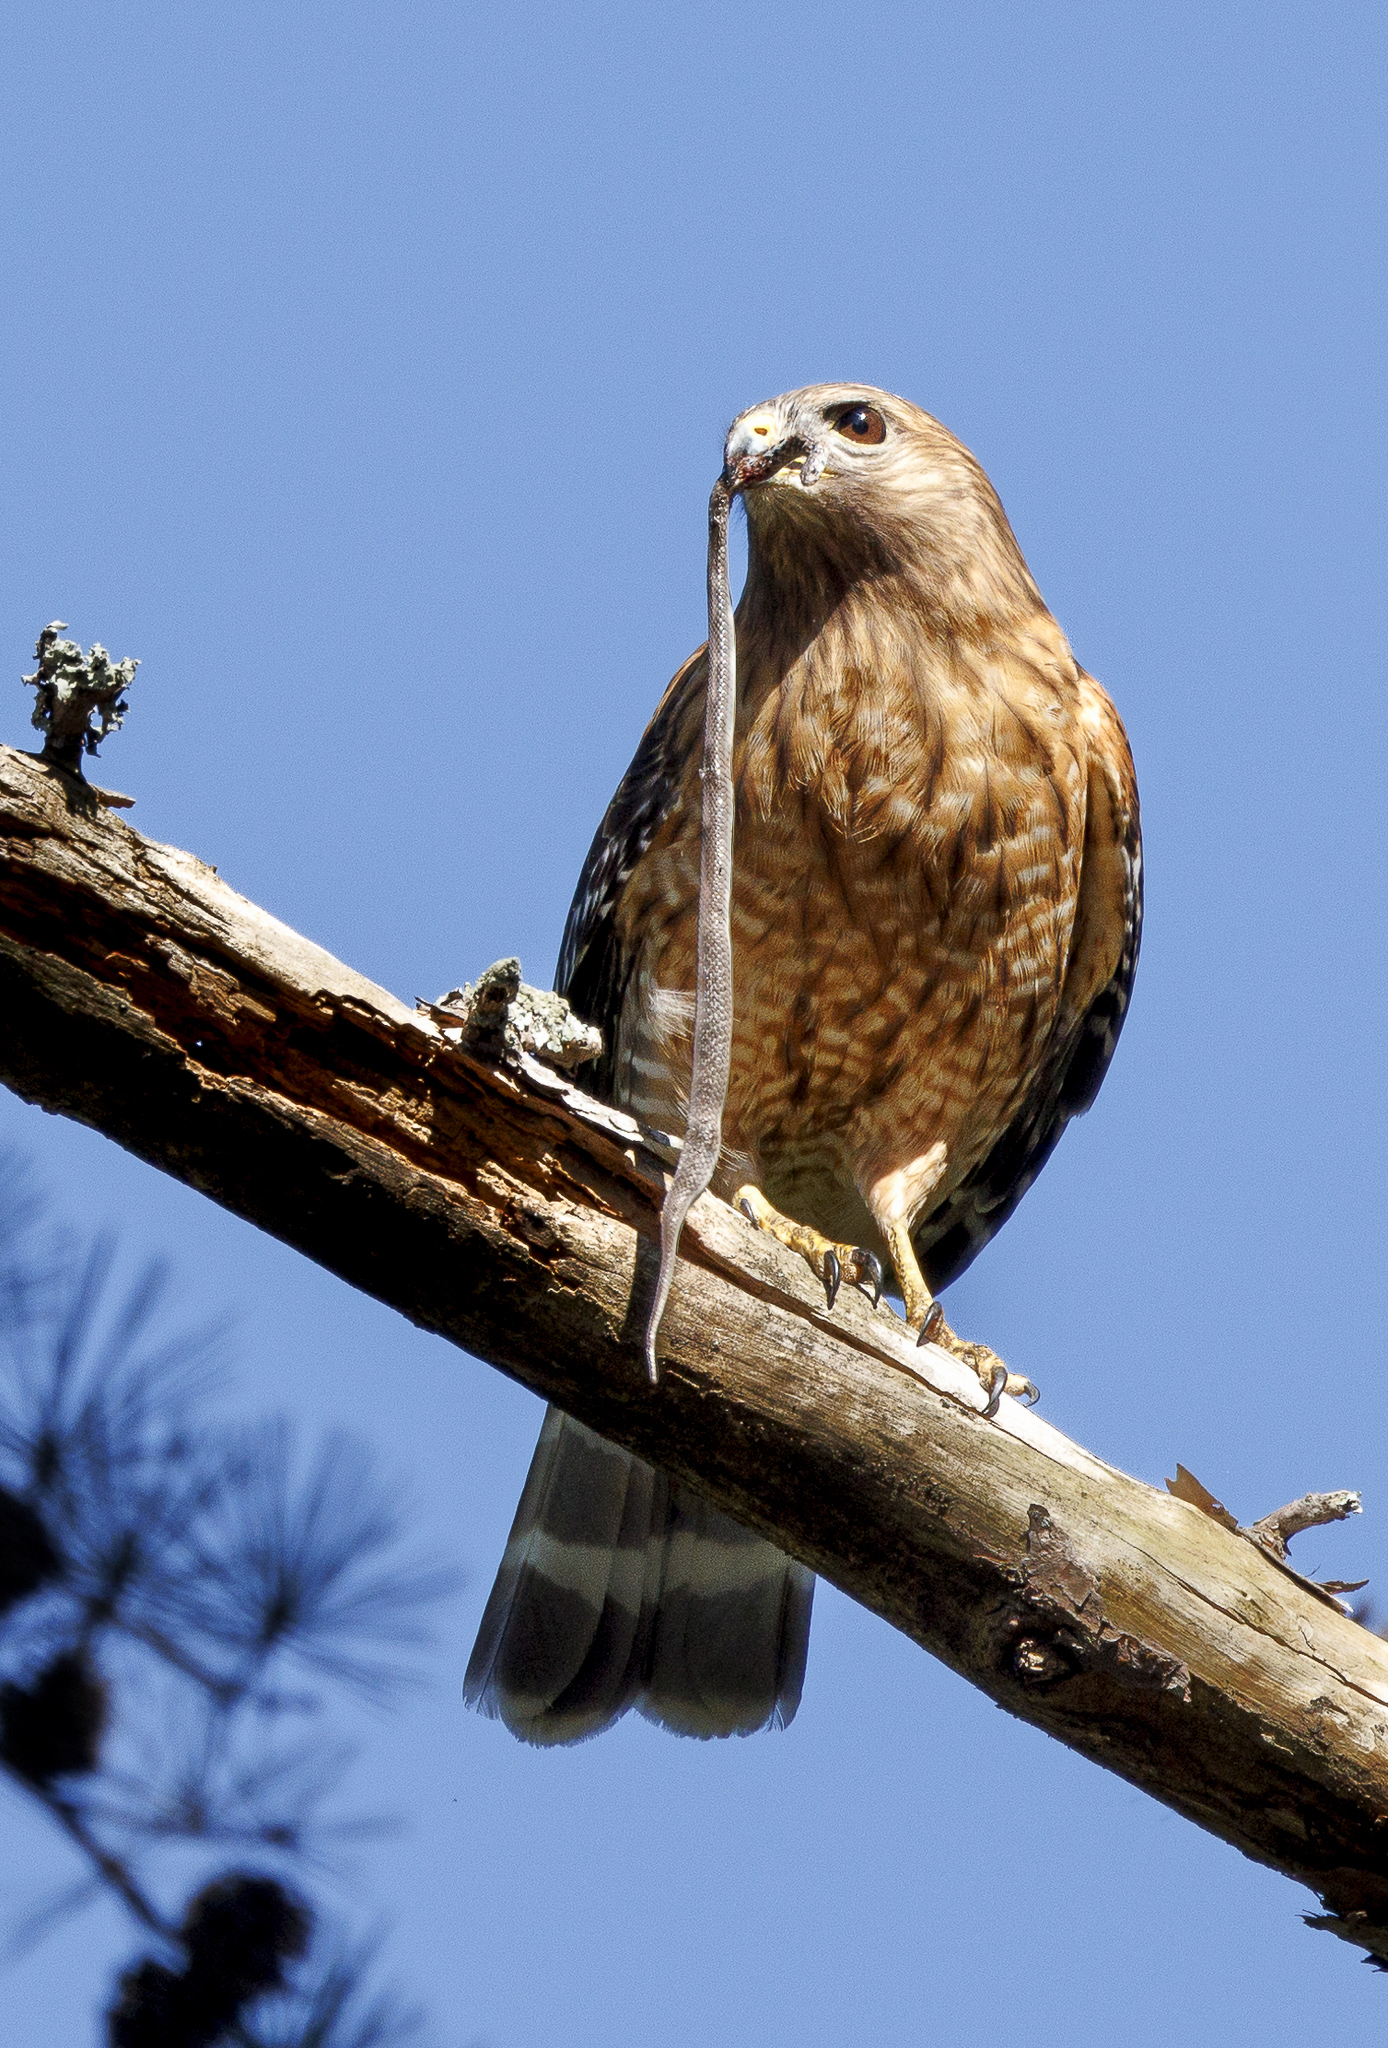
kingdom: Animalia
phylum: Chordata
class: Aves
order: Accipitriformes
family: Accipitridae
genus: Buteo
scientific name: Buteo lineatus
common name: Red-shouldered hawk
